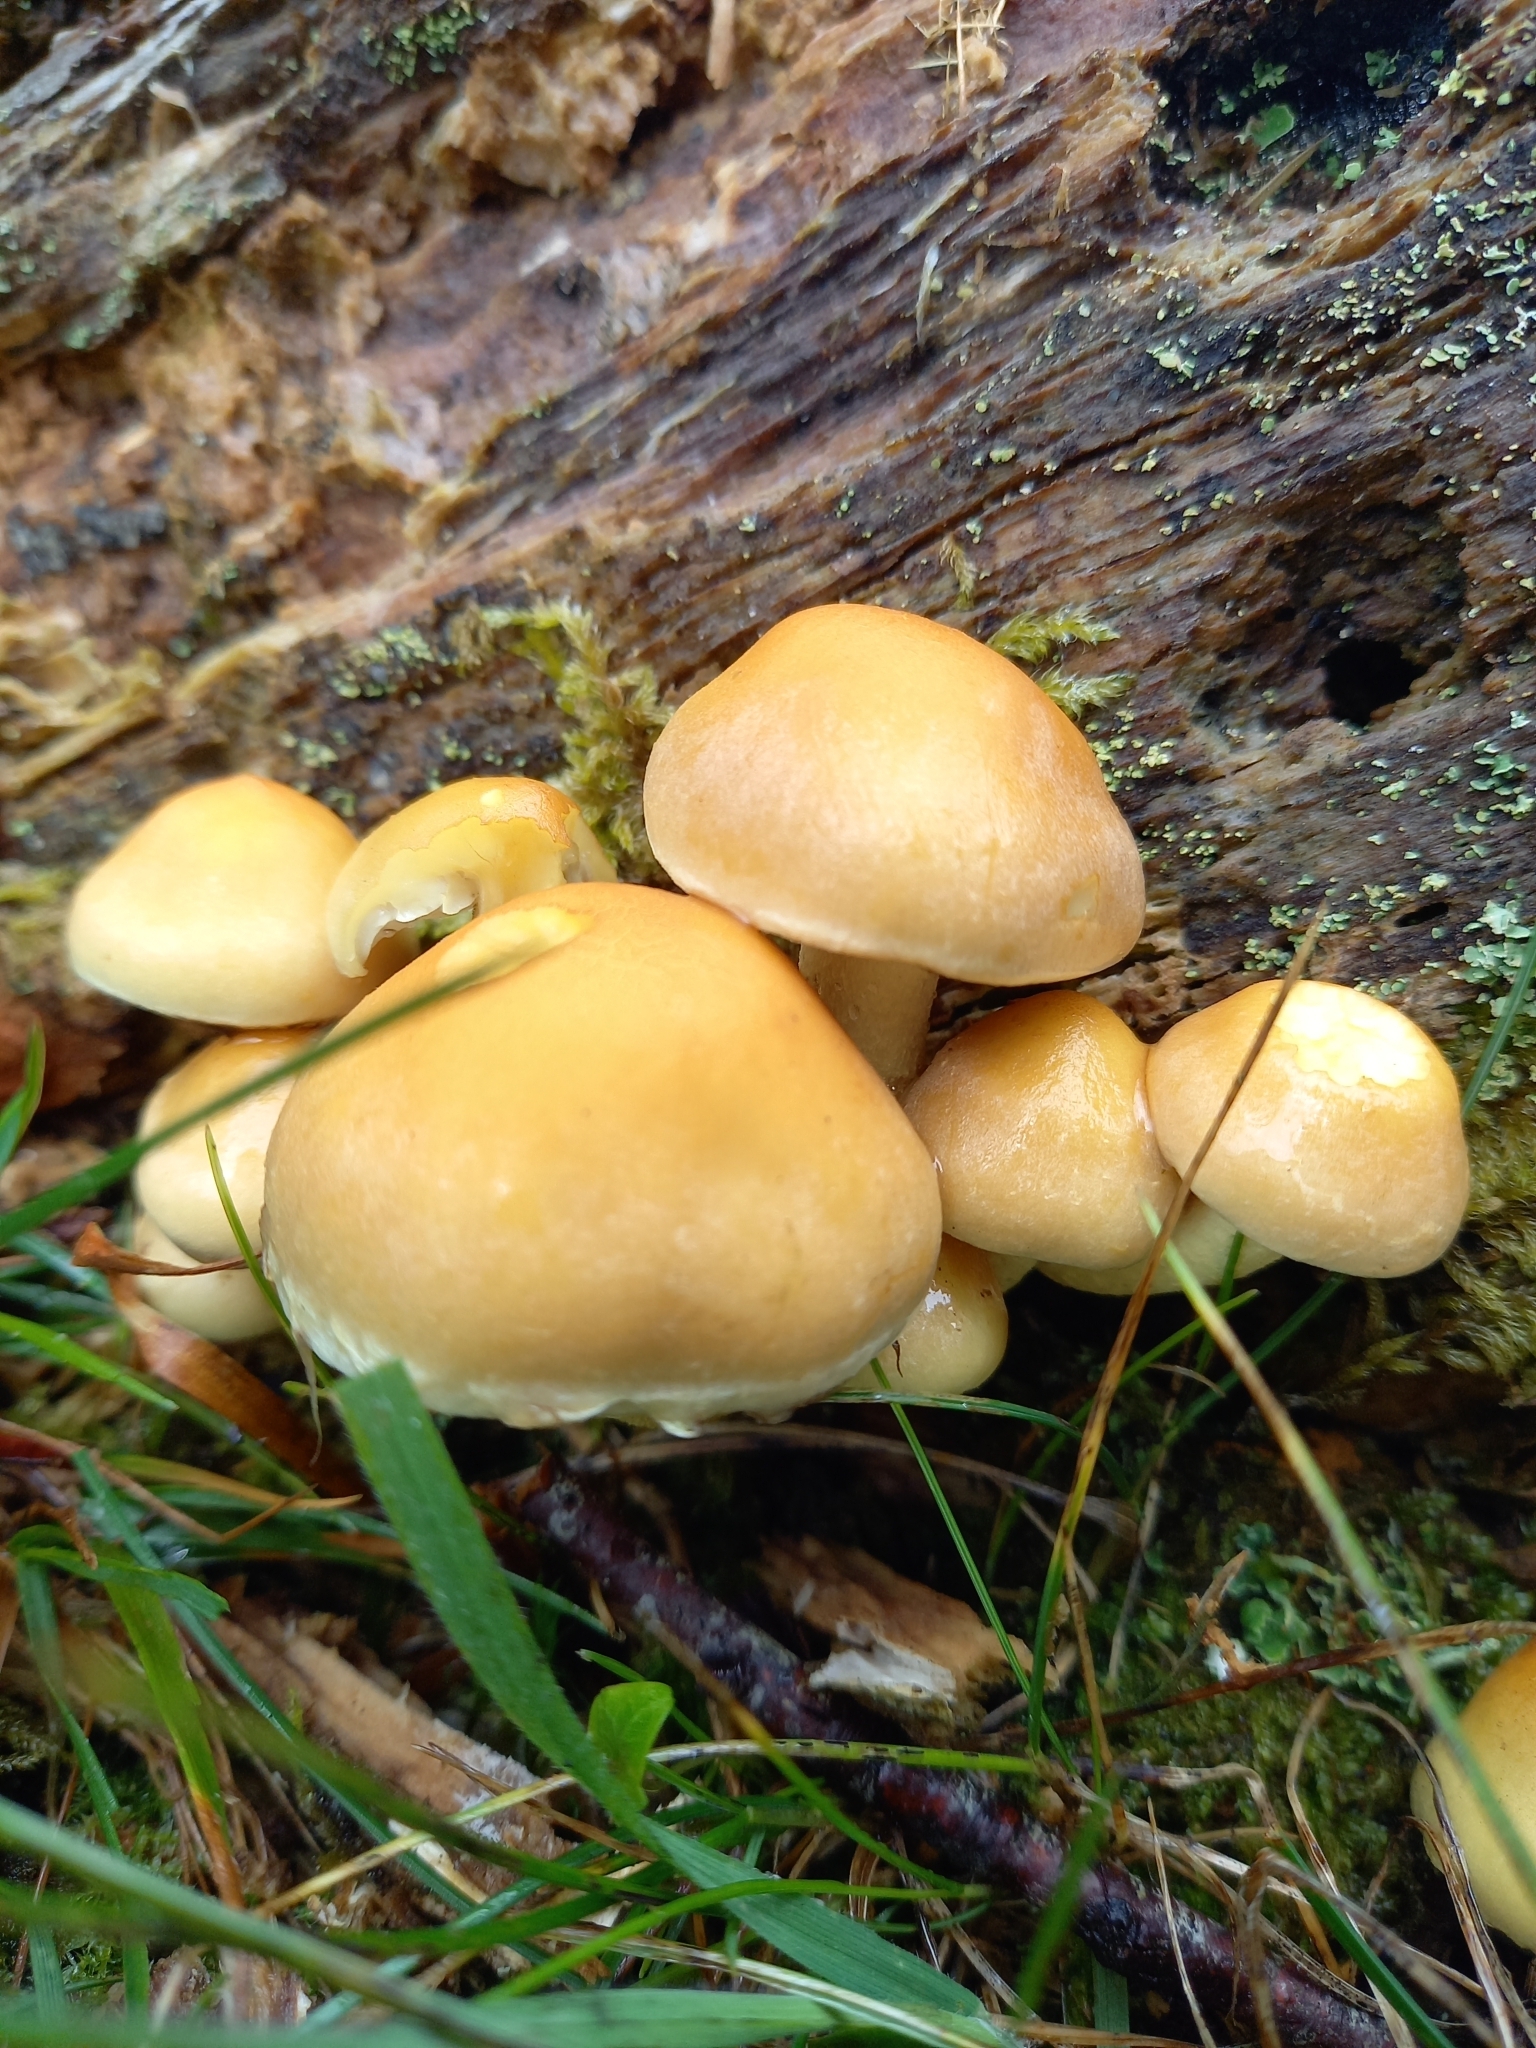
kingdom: Fungi
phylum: Basidiomycota
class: Agaricomycetes
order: Agaricales
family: Strophariaceae
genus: Hypholoma
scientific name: Hypholoma fasciculare
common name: Sulphur tuft
